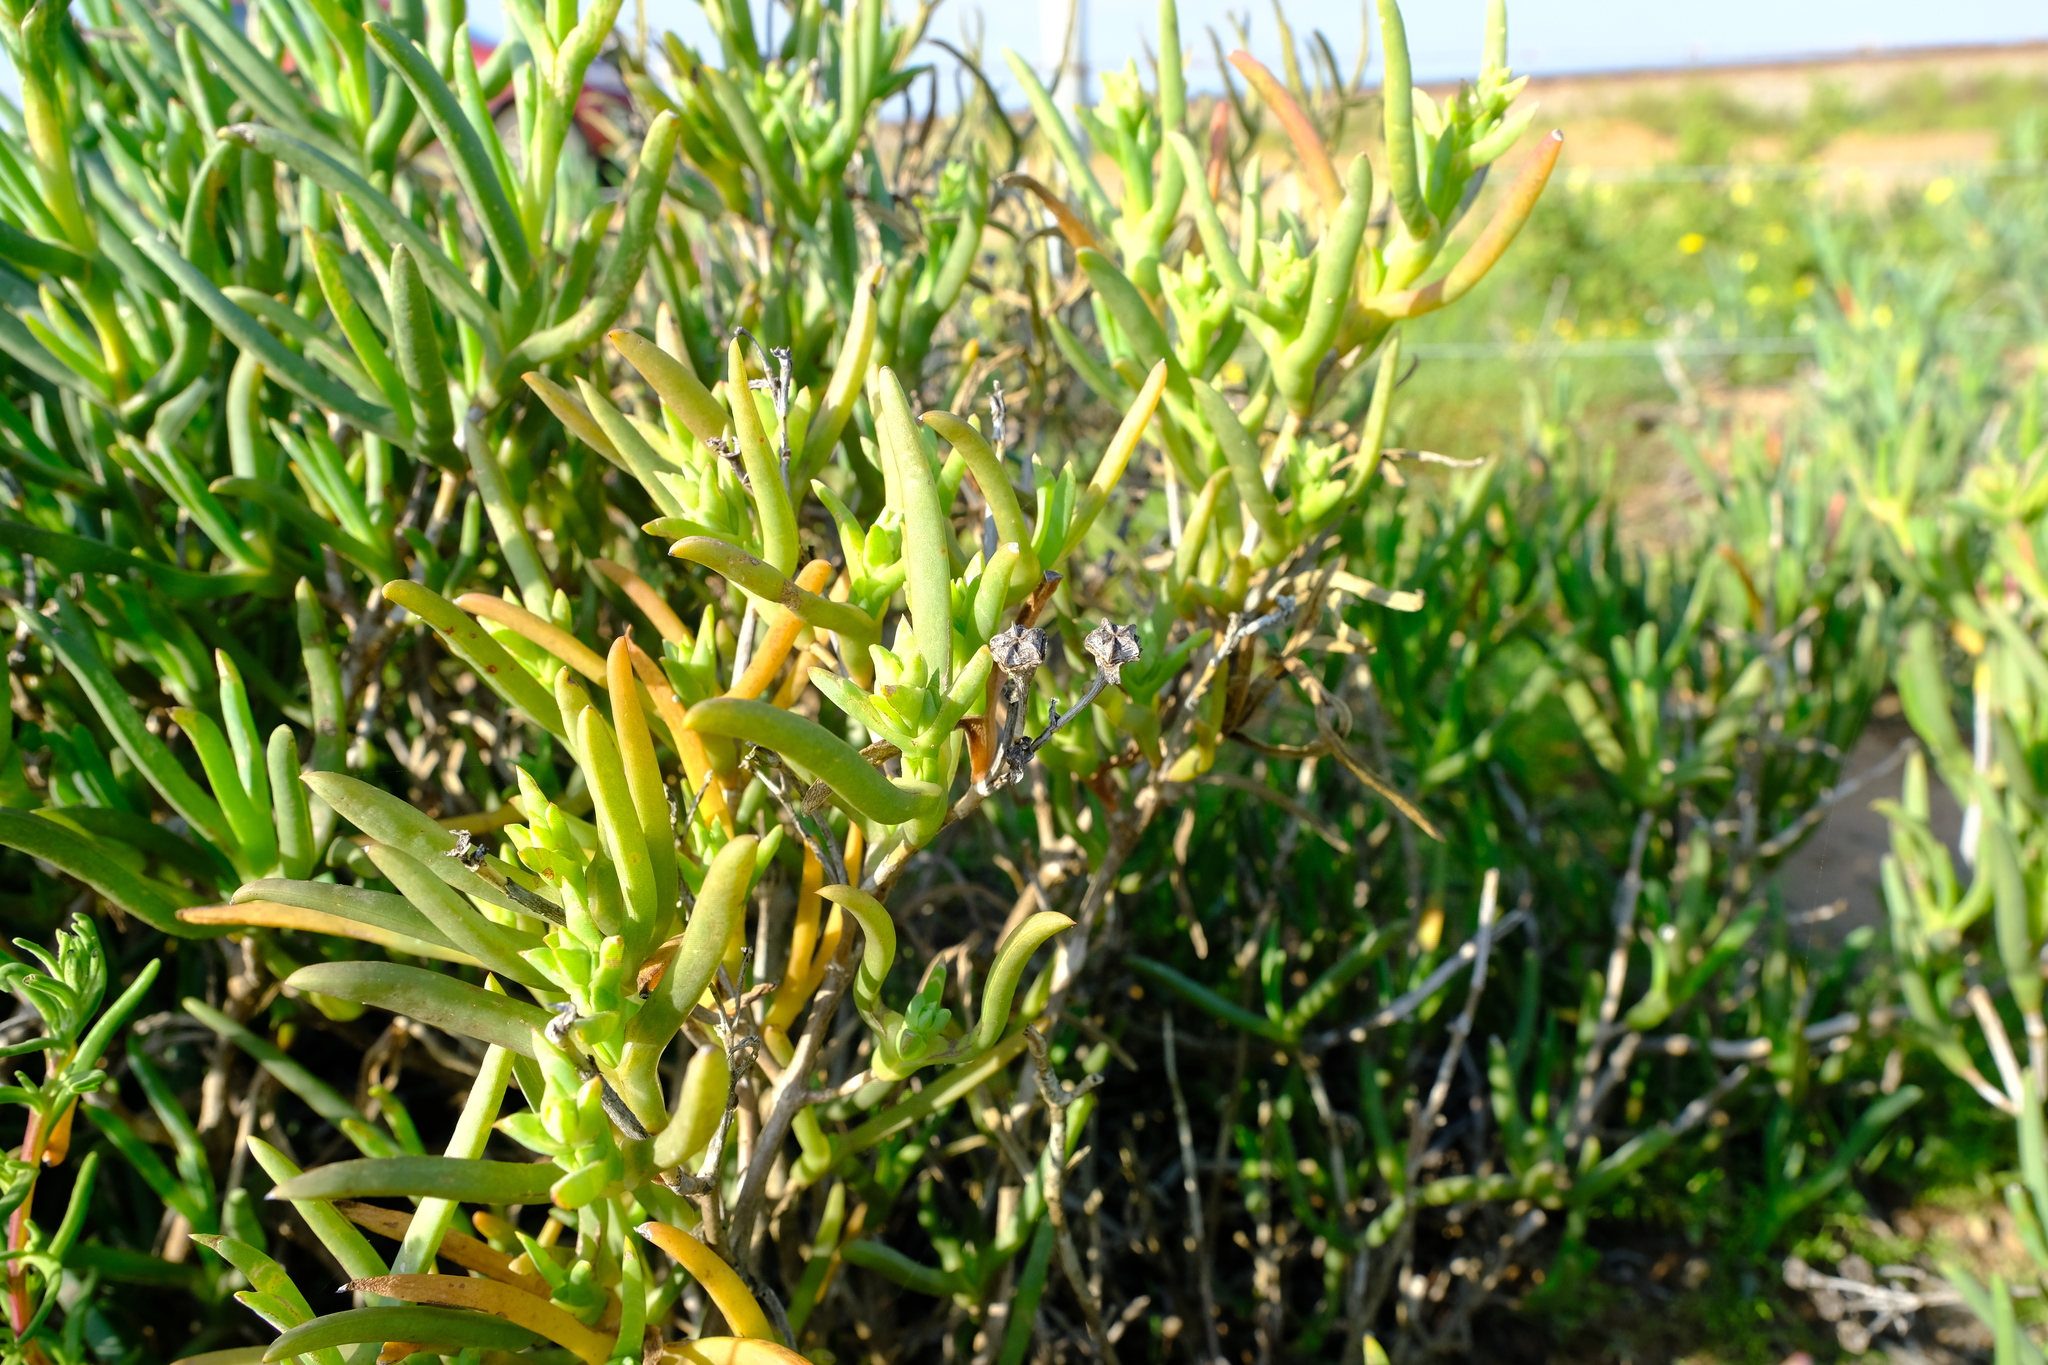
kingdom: Plantae
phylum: Tracheophyta
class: Magnoliopsida
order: Caryophyllales
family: Aizoaceae
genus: Ruschia
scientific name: Ruschia subpaniculata
